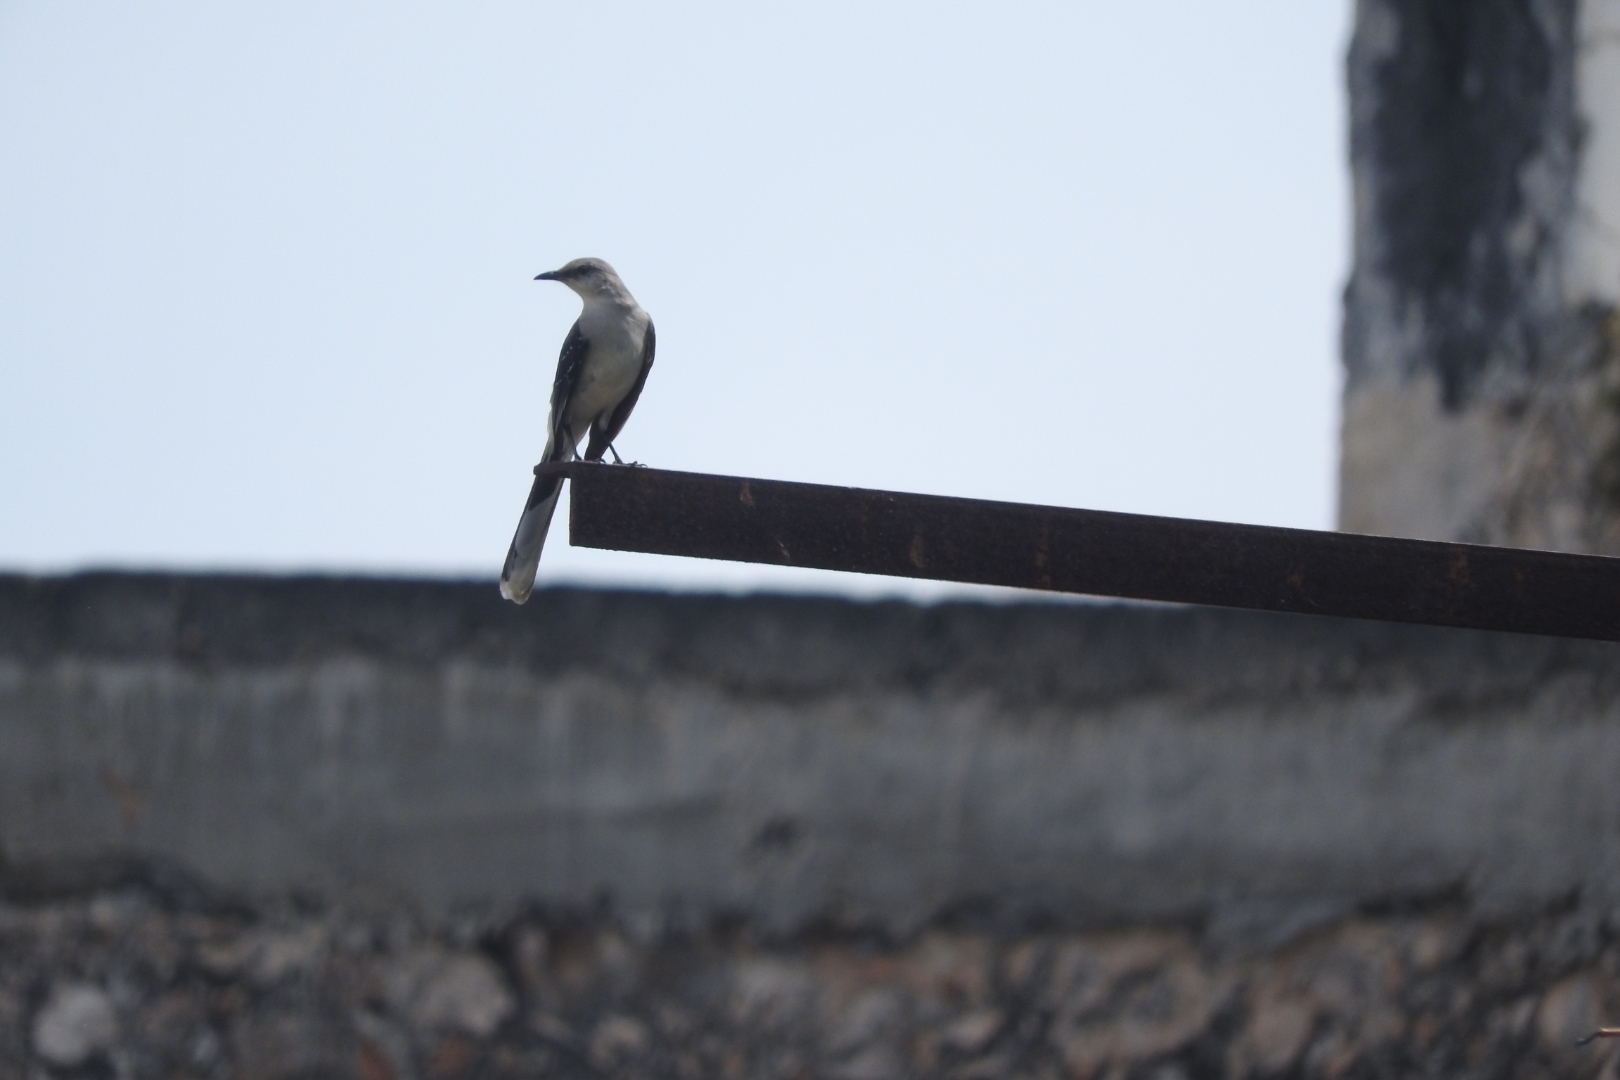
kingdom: Animalia
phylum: Chordata
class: Aves
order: Passeriformes
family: Mimidae
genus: Mimus
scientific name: Mimus gilvus
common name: Tropical mockingbird
